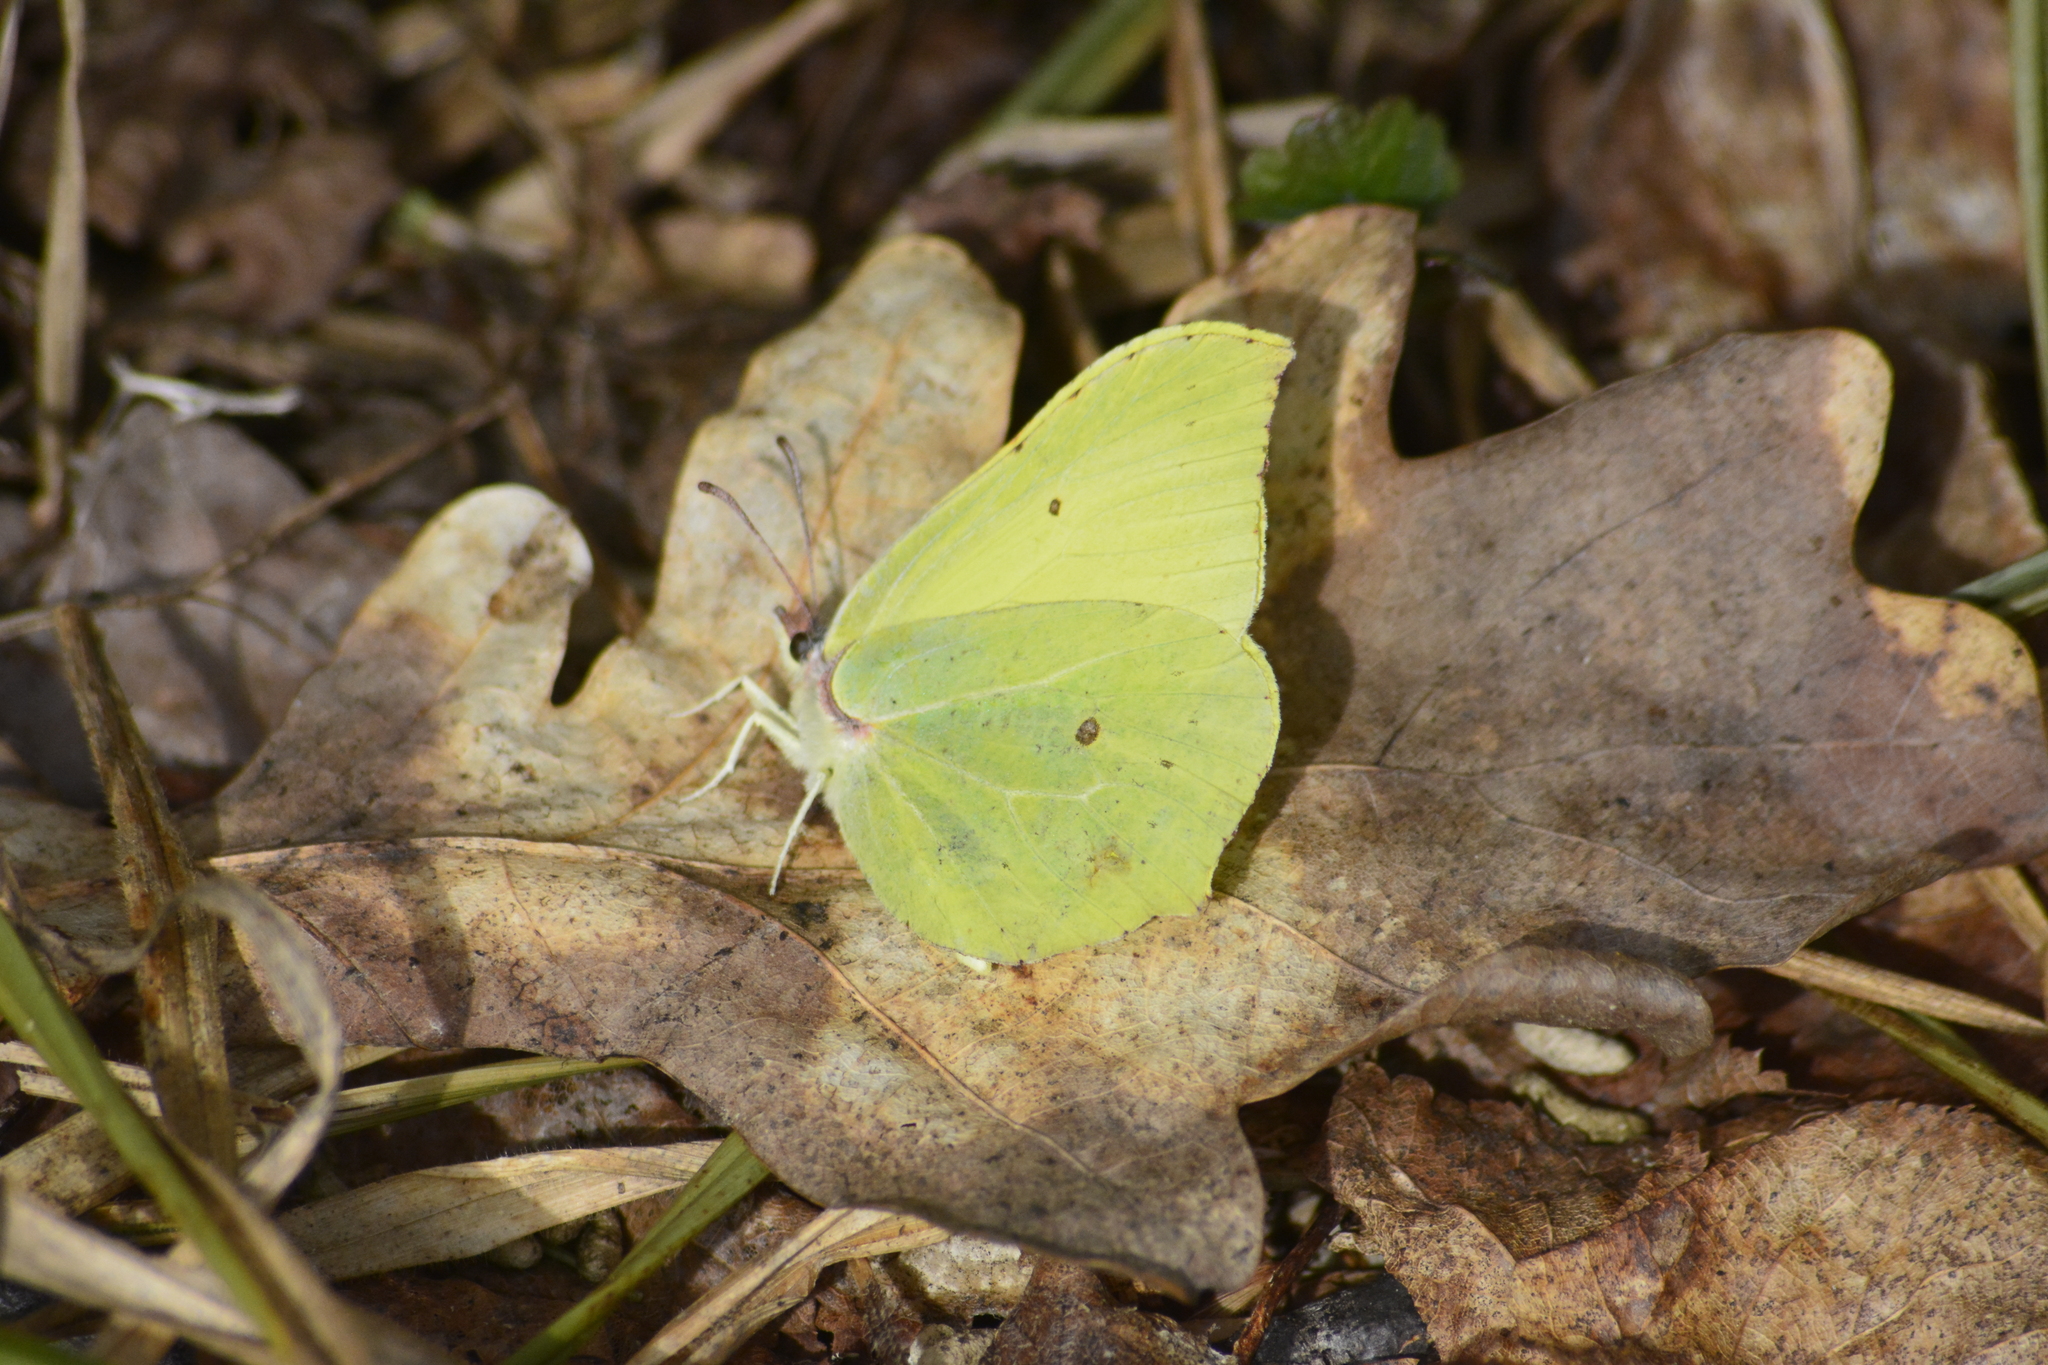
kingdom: Animalia
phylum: Arthropoda
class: Insecta
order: Lepidoptera
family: Pieridae
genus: Gonepteryx
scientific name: Gonepteryx rhamni
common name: Brimstone
